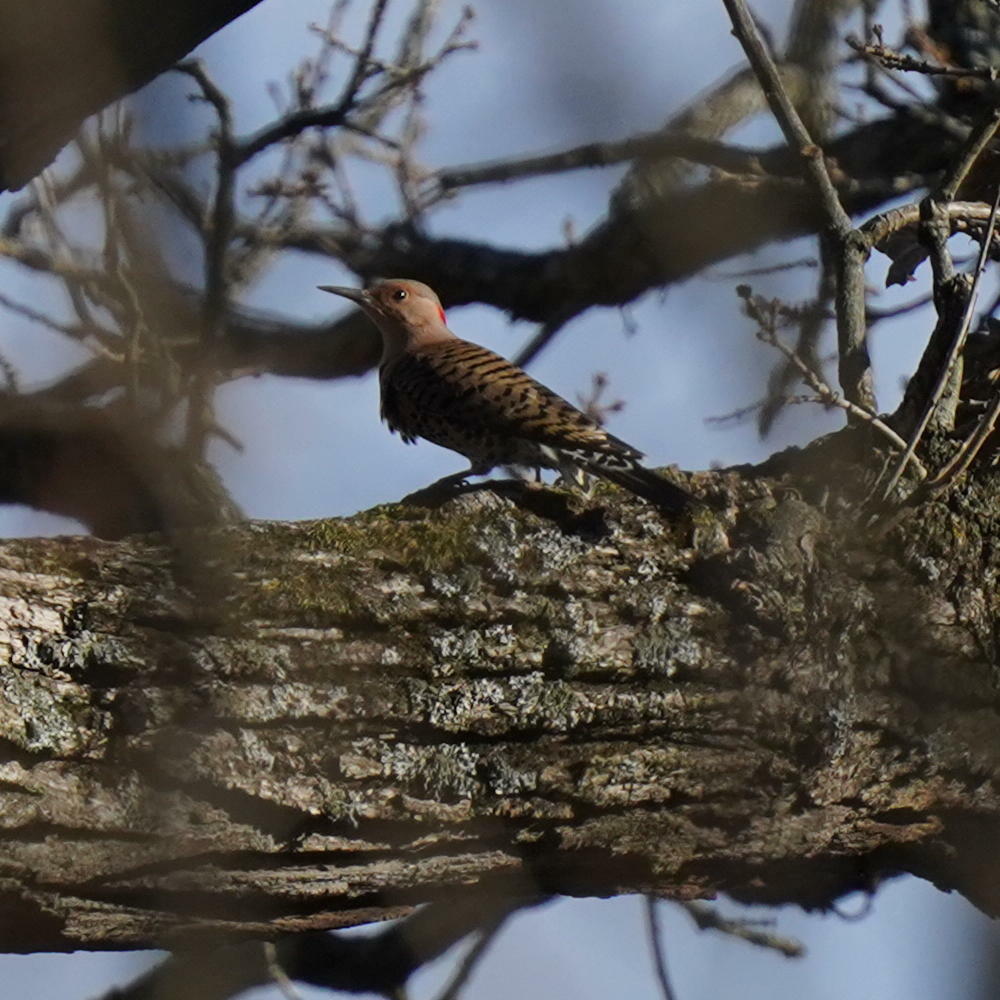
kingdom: Animalia
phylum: Chordata
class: Aves
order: Piciformes
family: Picidae
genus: Colaptes
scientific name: Colaptes auratus
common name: Northern flicker
